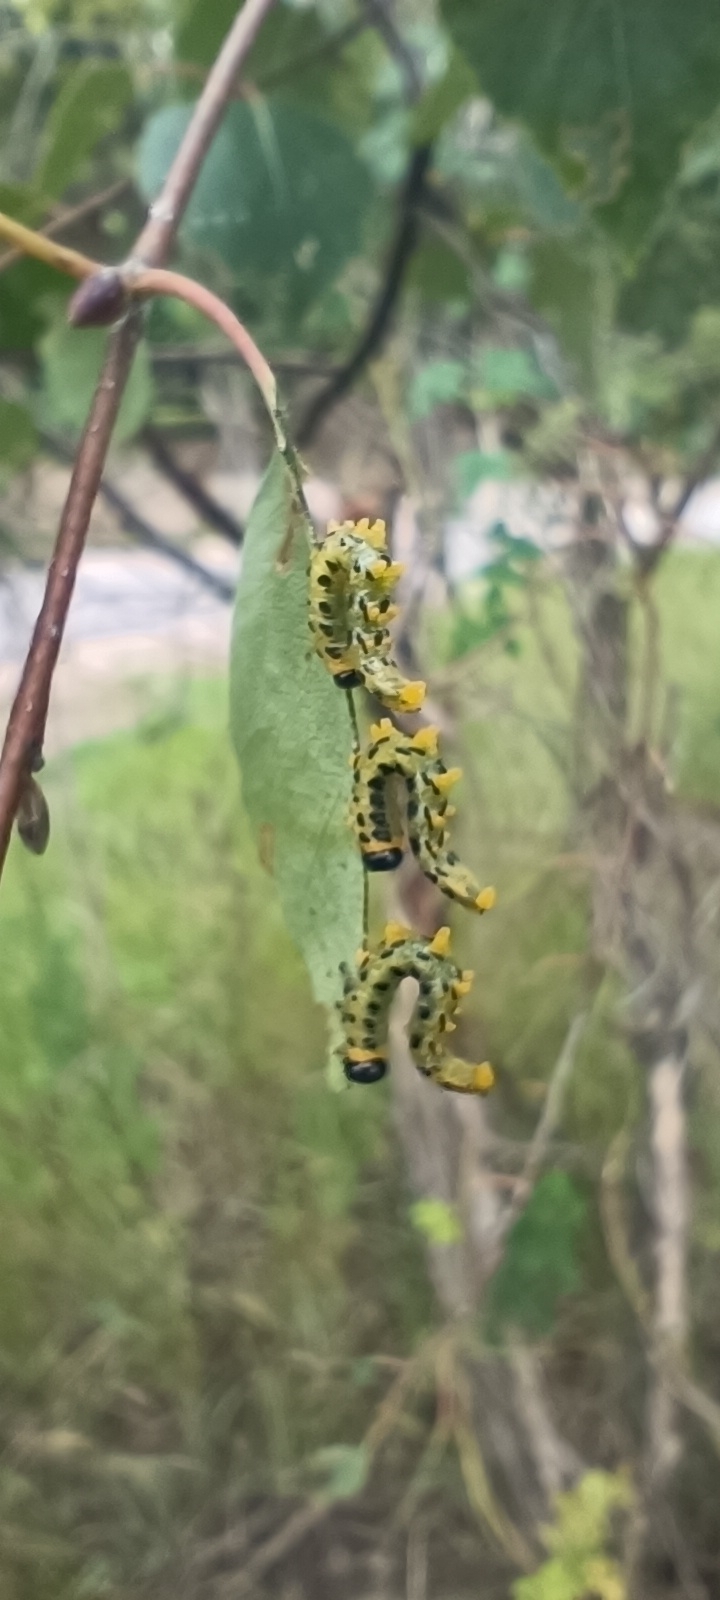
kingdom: Animalia
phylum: Arthropoda
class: Insecta
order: Hymenoptera
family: Tenthredinidae
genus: Craesus
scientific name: Craesus septentrionalis
